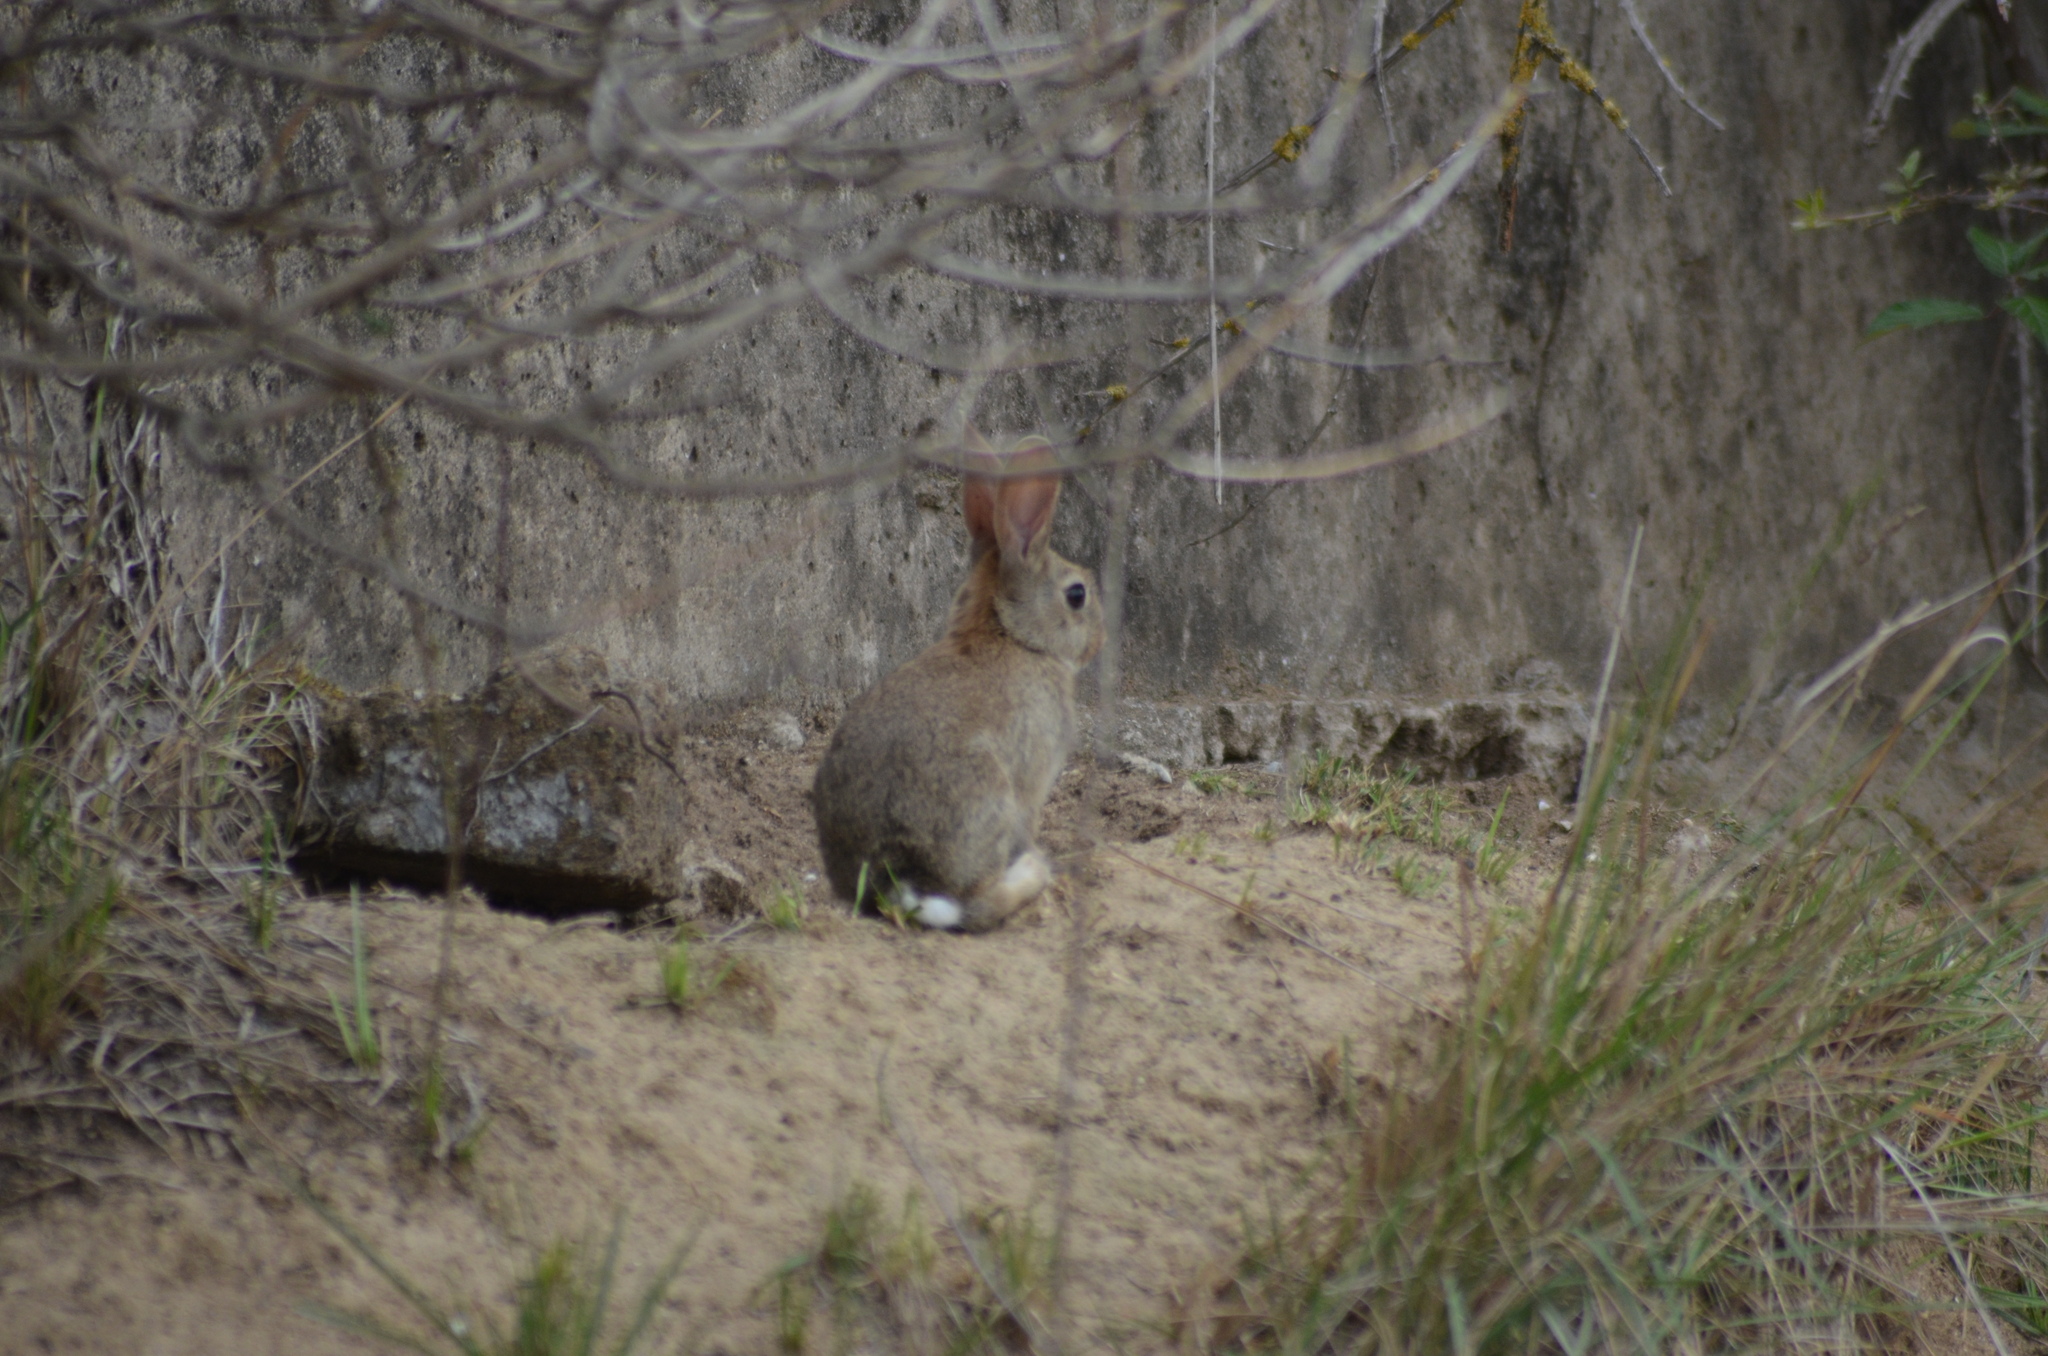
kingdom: Animalia
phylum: Chordata
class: Mammalia
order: Lagomorpha
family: Leporidae
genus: Oryctolagus
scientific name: Oryctolagus cuniculus
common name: European rabbit
